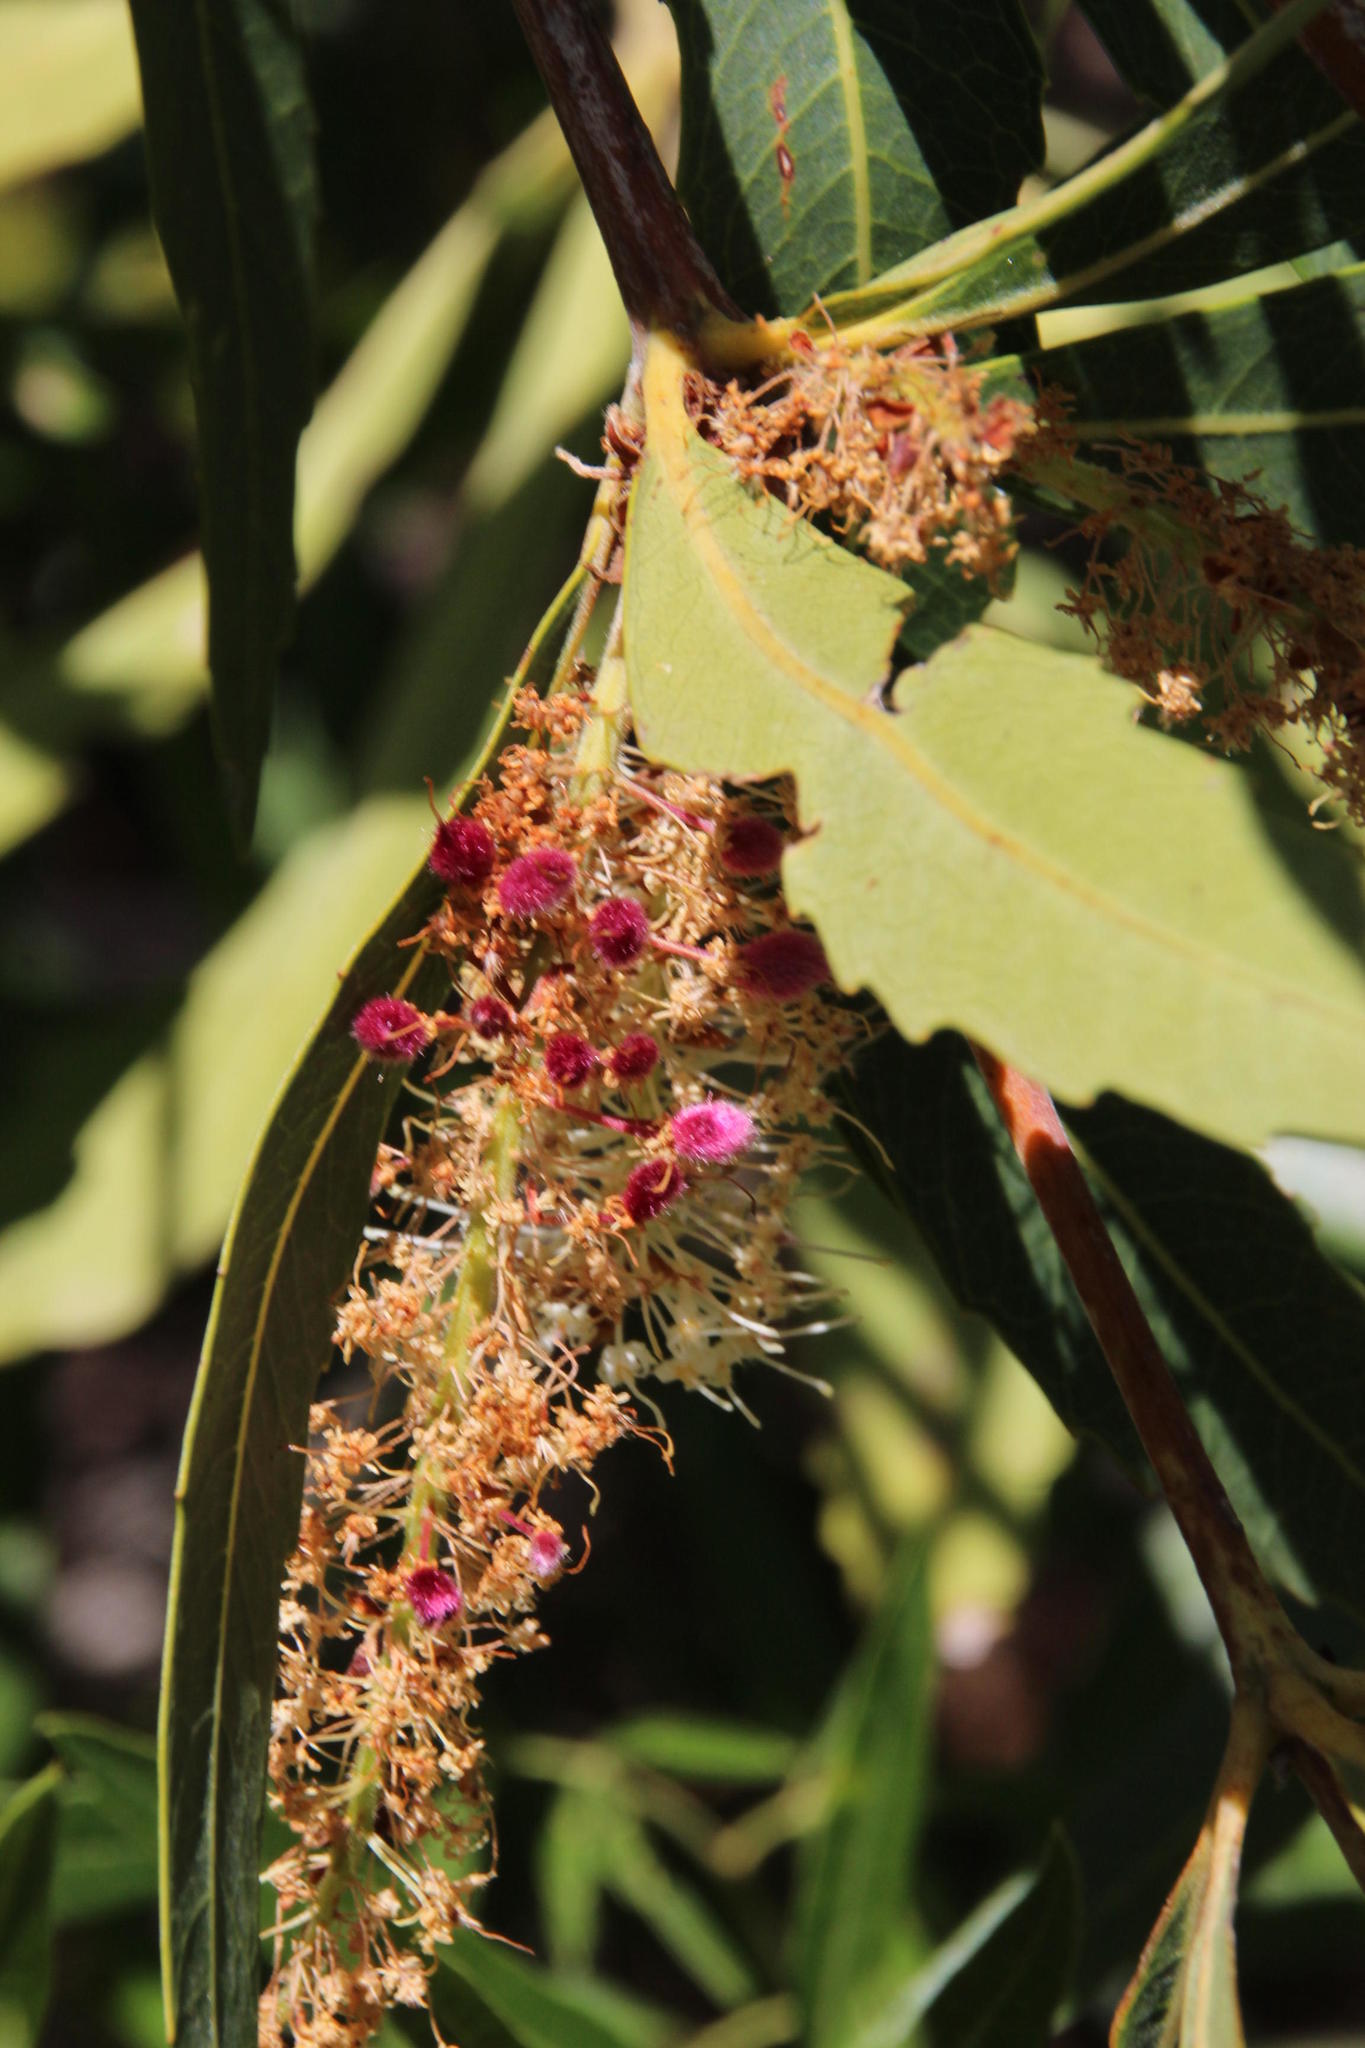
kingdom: Plantae
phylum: Tracheophyta
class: Magnoliopsida
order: Proteales
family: Proteaceae
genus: Brabejum
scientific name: Brabejum stellatifolium
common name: Wild almond
